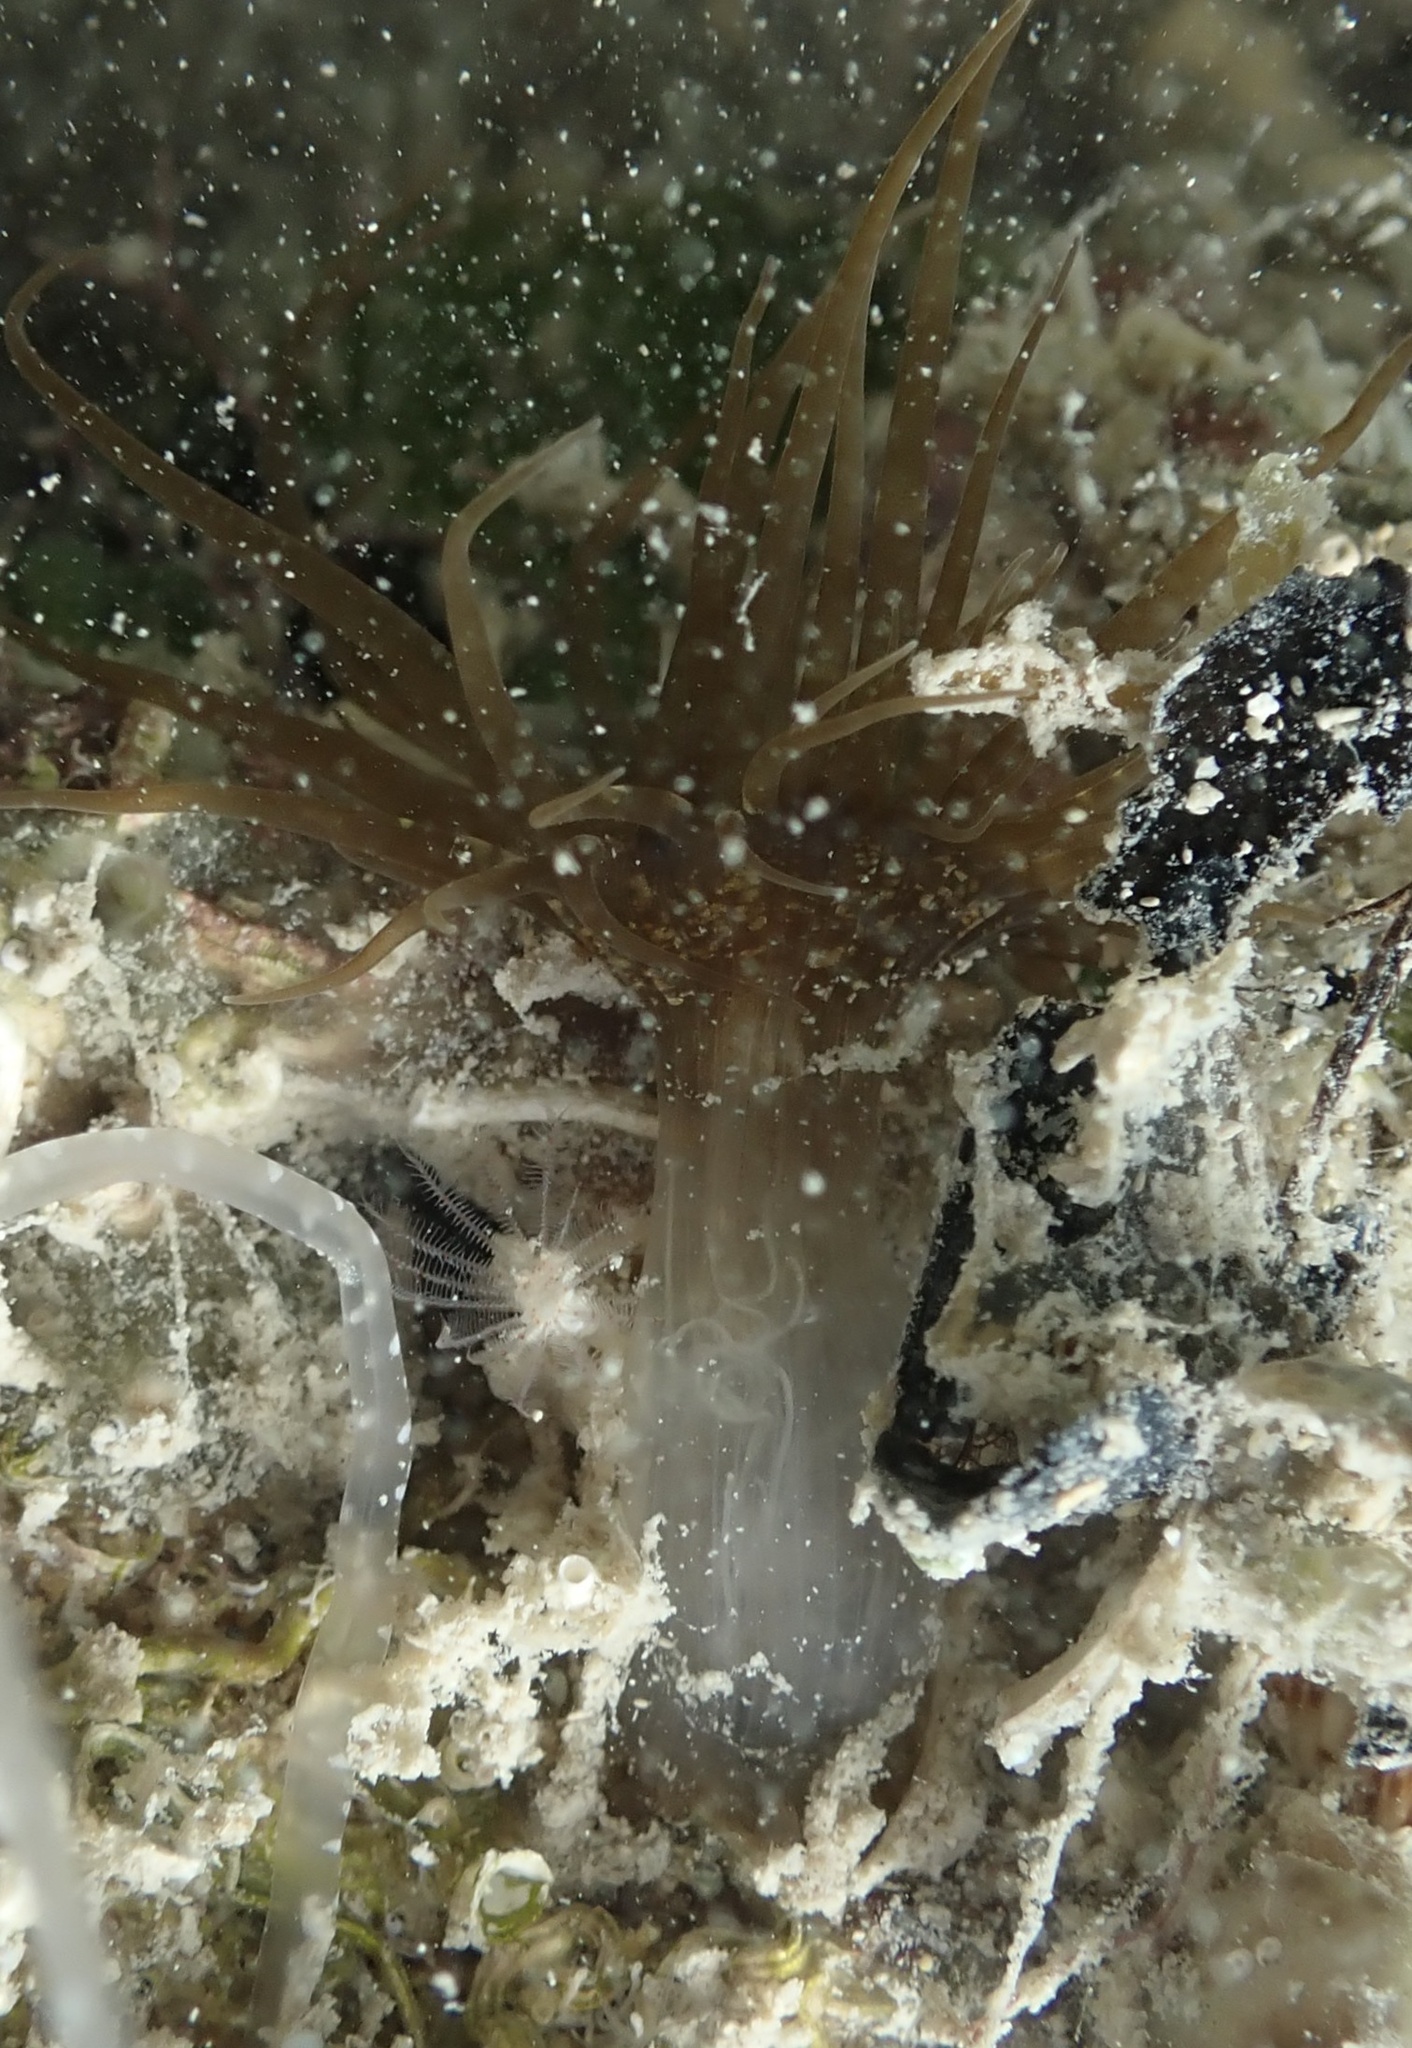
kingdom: Animalia
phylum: Cnidaria
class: Anthozoa
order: Actiniaria
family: Aiptasiidae
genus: Exaiptasia
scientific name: Exaiptasia diaphana
